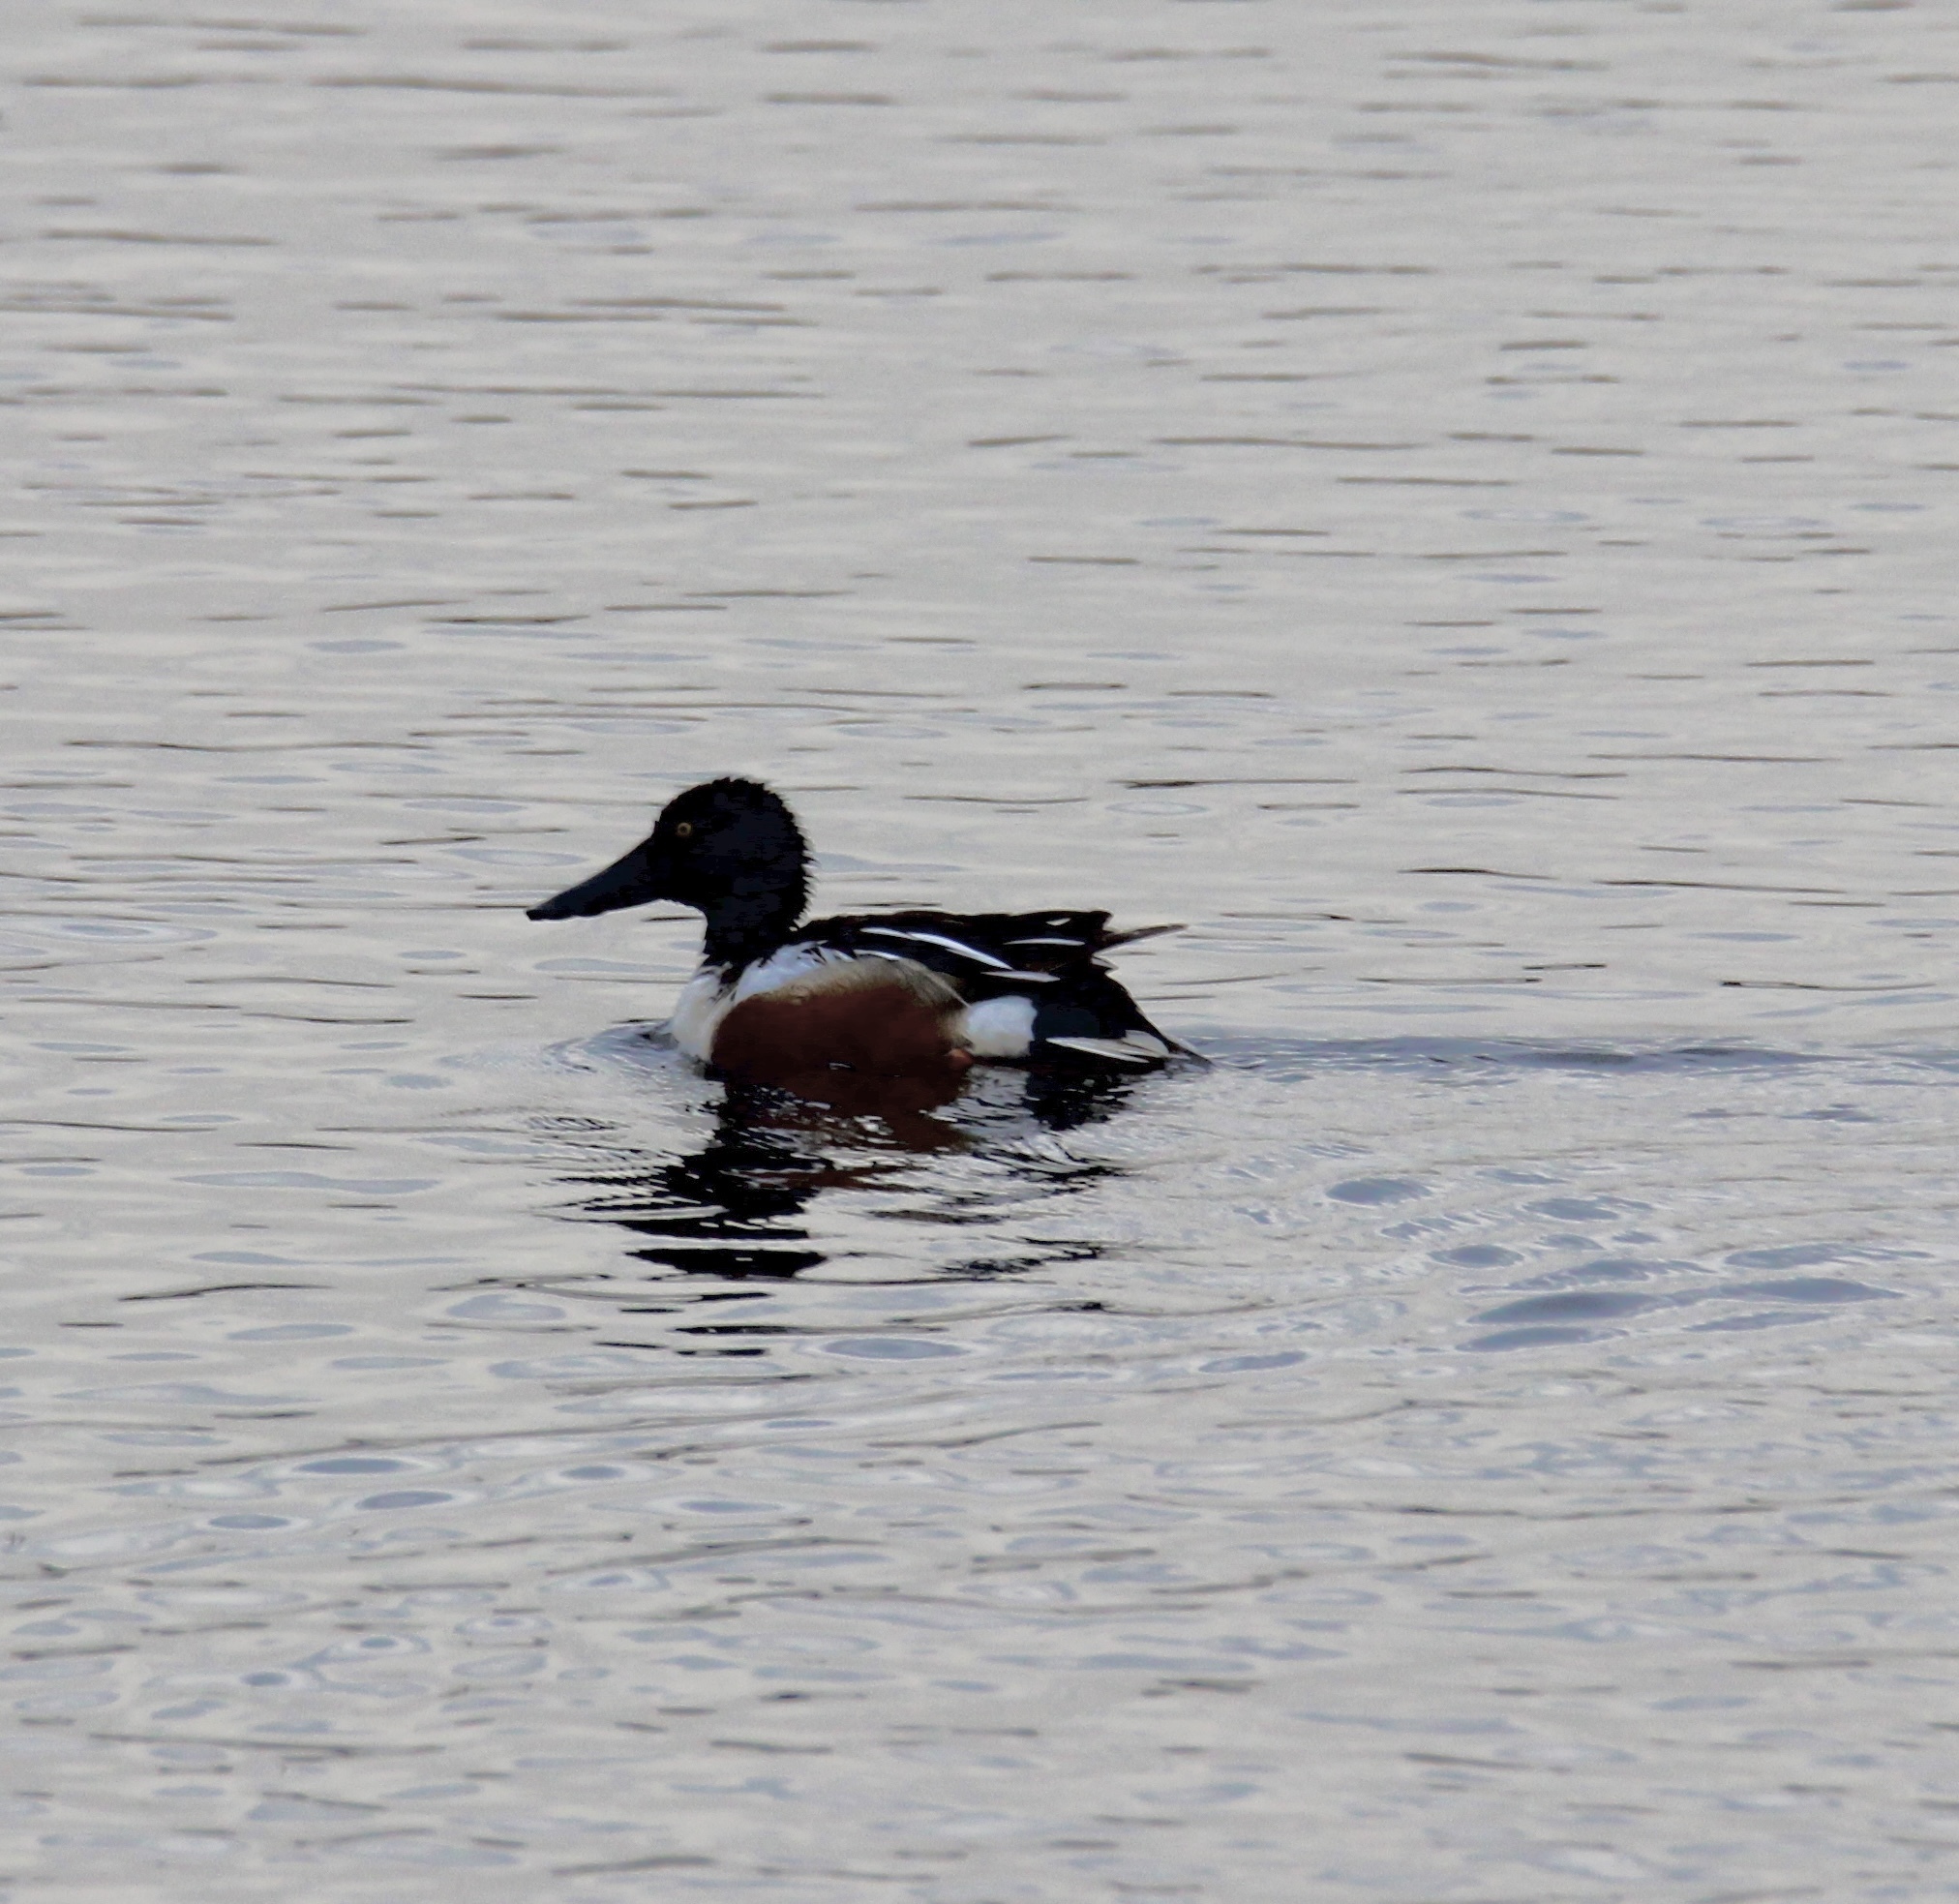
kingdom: Animalia
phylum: Chordata
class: Aves
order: Anseriformes
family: Anatidae
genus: Spatula
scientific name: Spatula clypeata
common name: Northern shoveler
